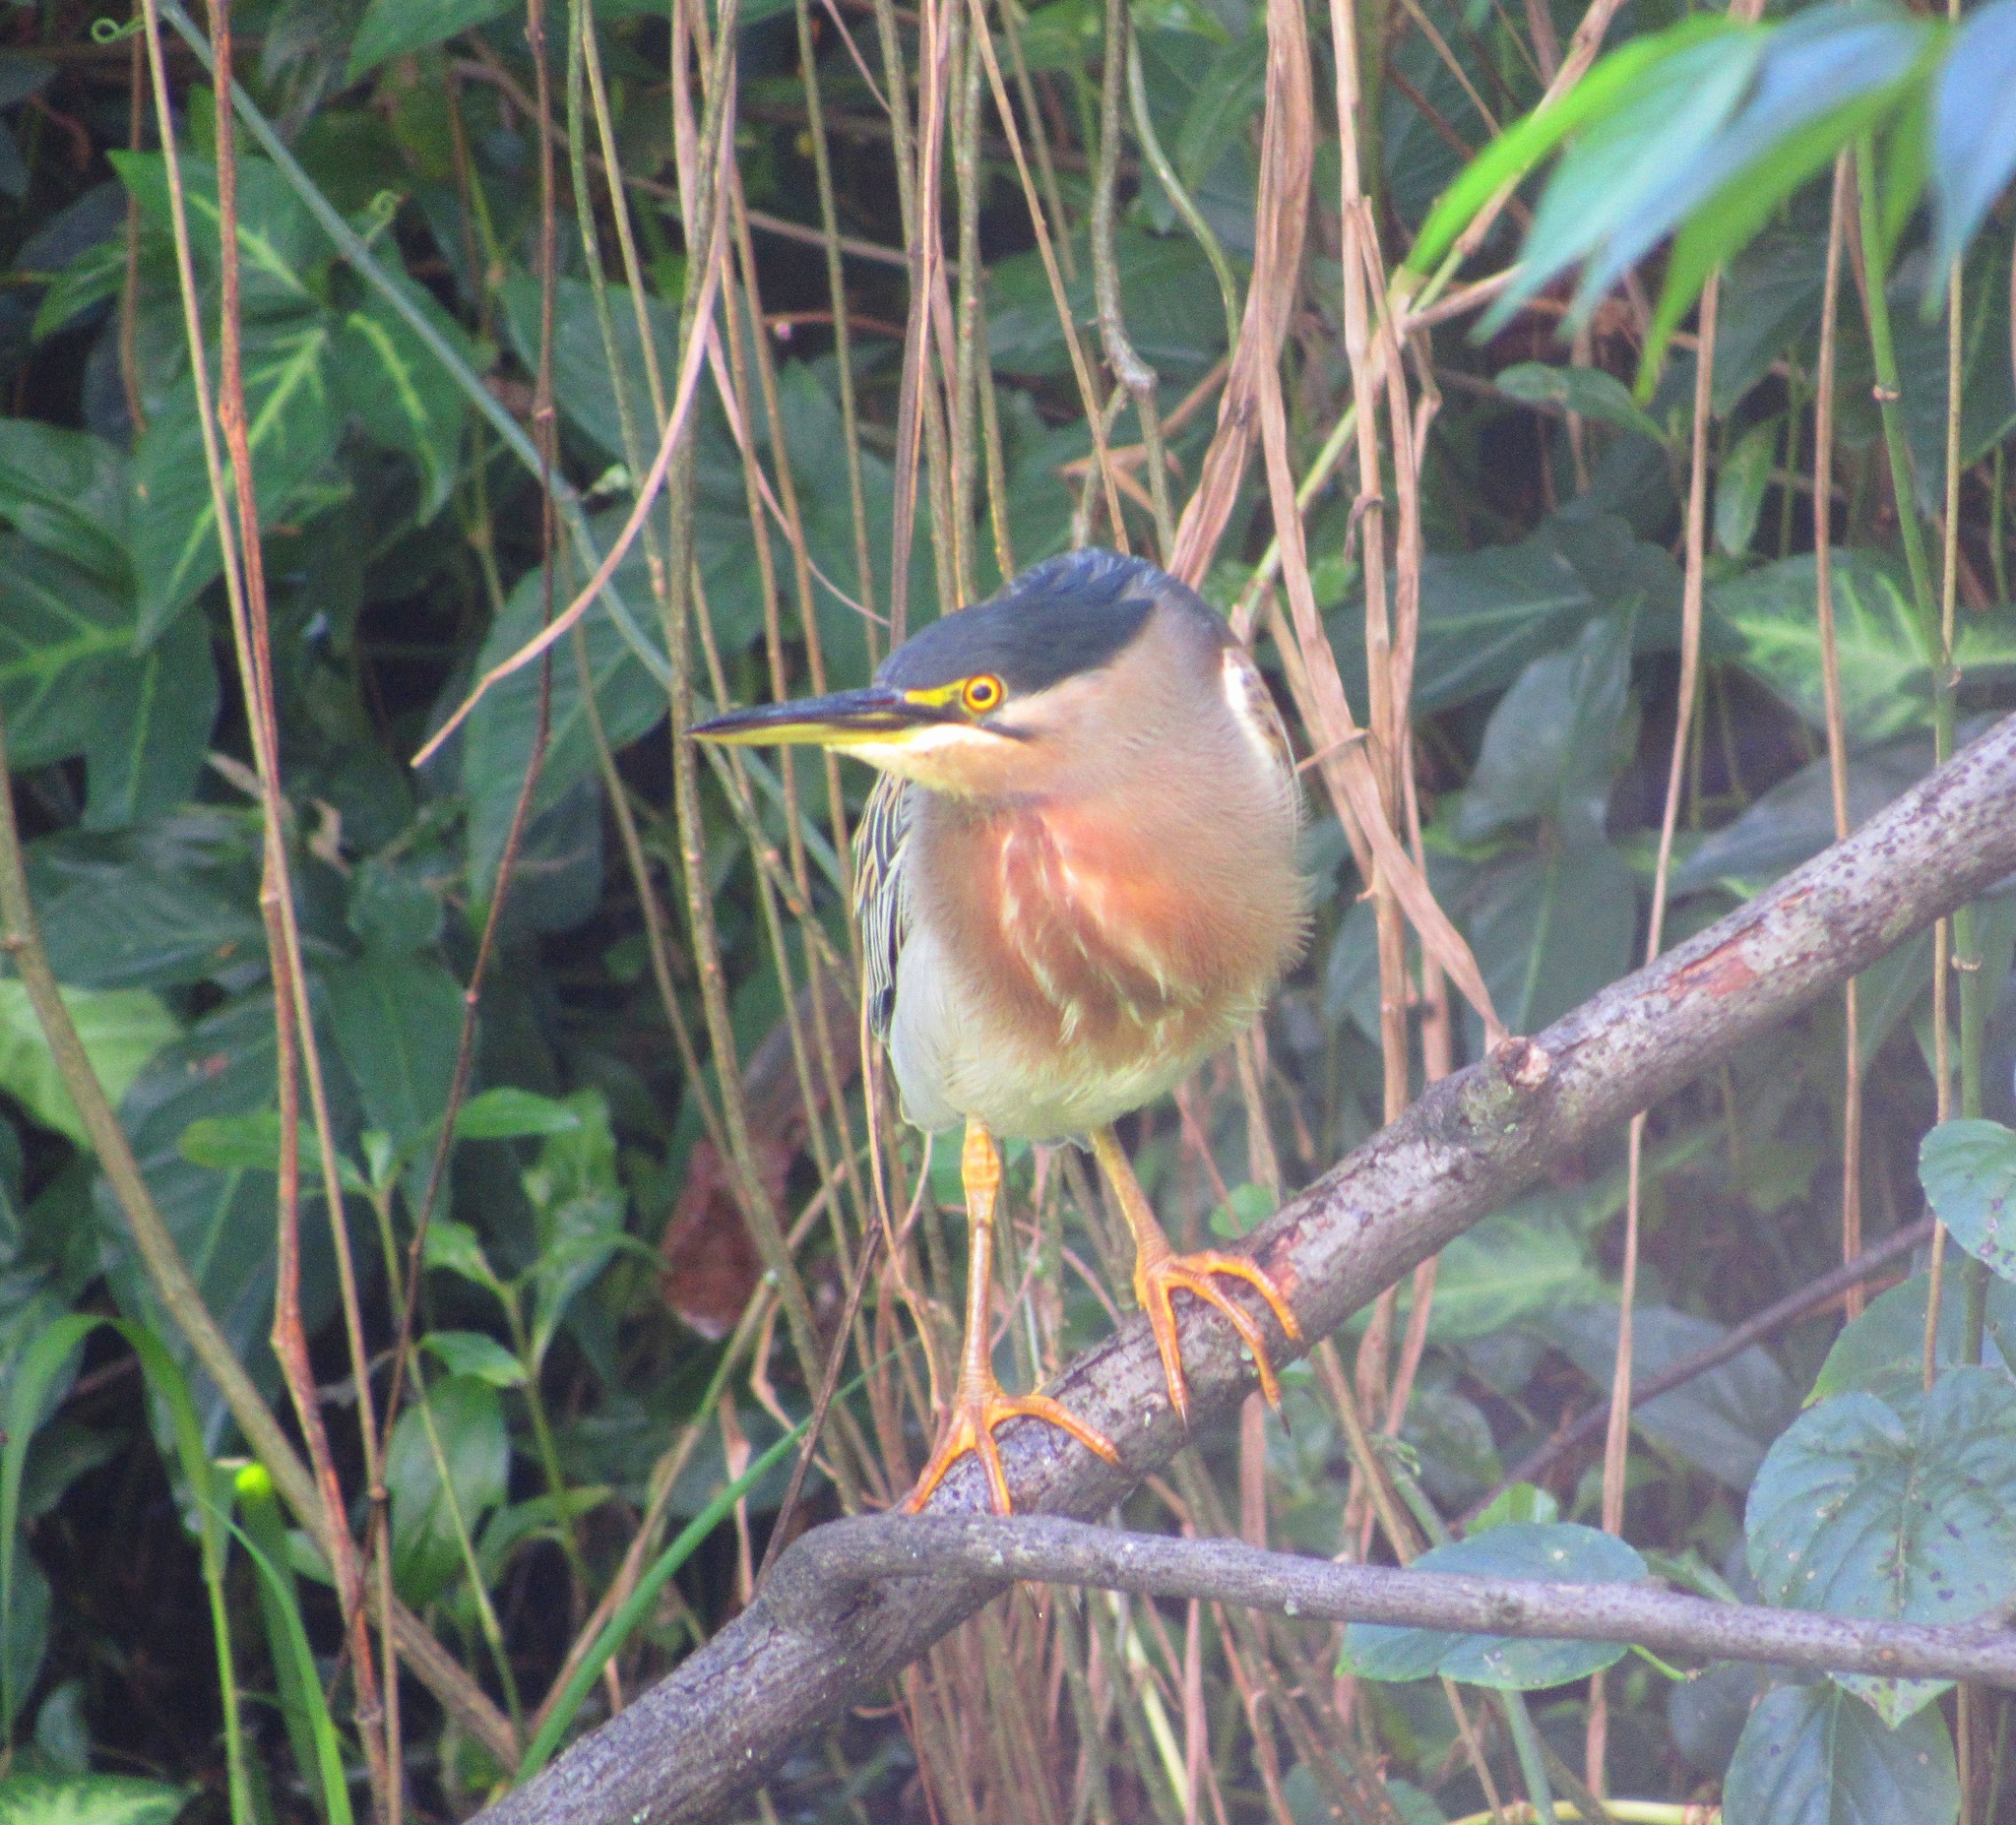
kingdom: Animalia
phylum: Chordata
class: Aves
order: Pelecaniformes
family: Ardeidae
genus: Butorides
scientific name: Butorides striata
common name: Striated heron
